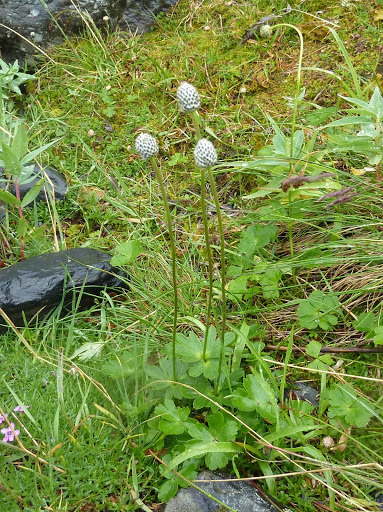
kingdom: Plantae
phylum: Tracheophyta
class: Magnoliopsida
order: Ranunculales
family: Ranunculaceae
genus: Anemone
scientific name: Anemone parviflora
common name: Northern anemone
